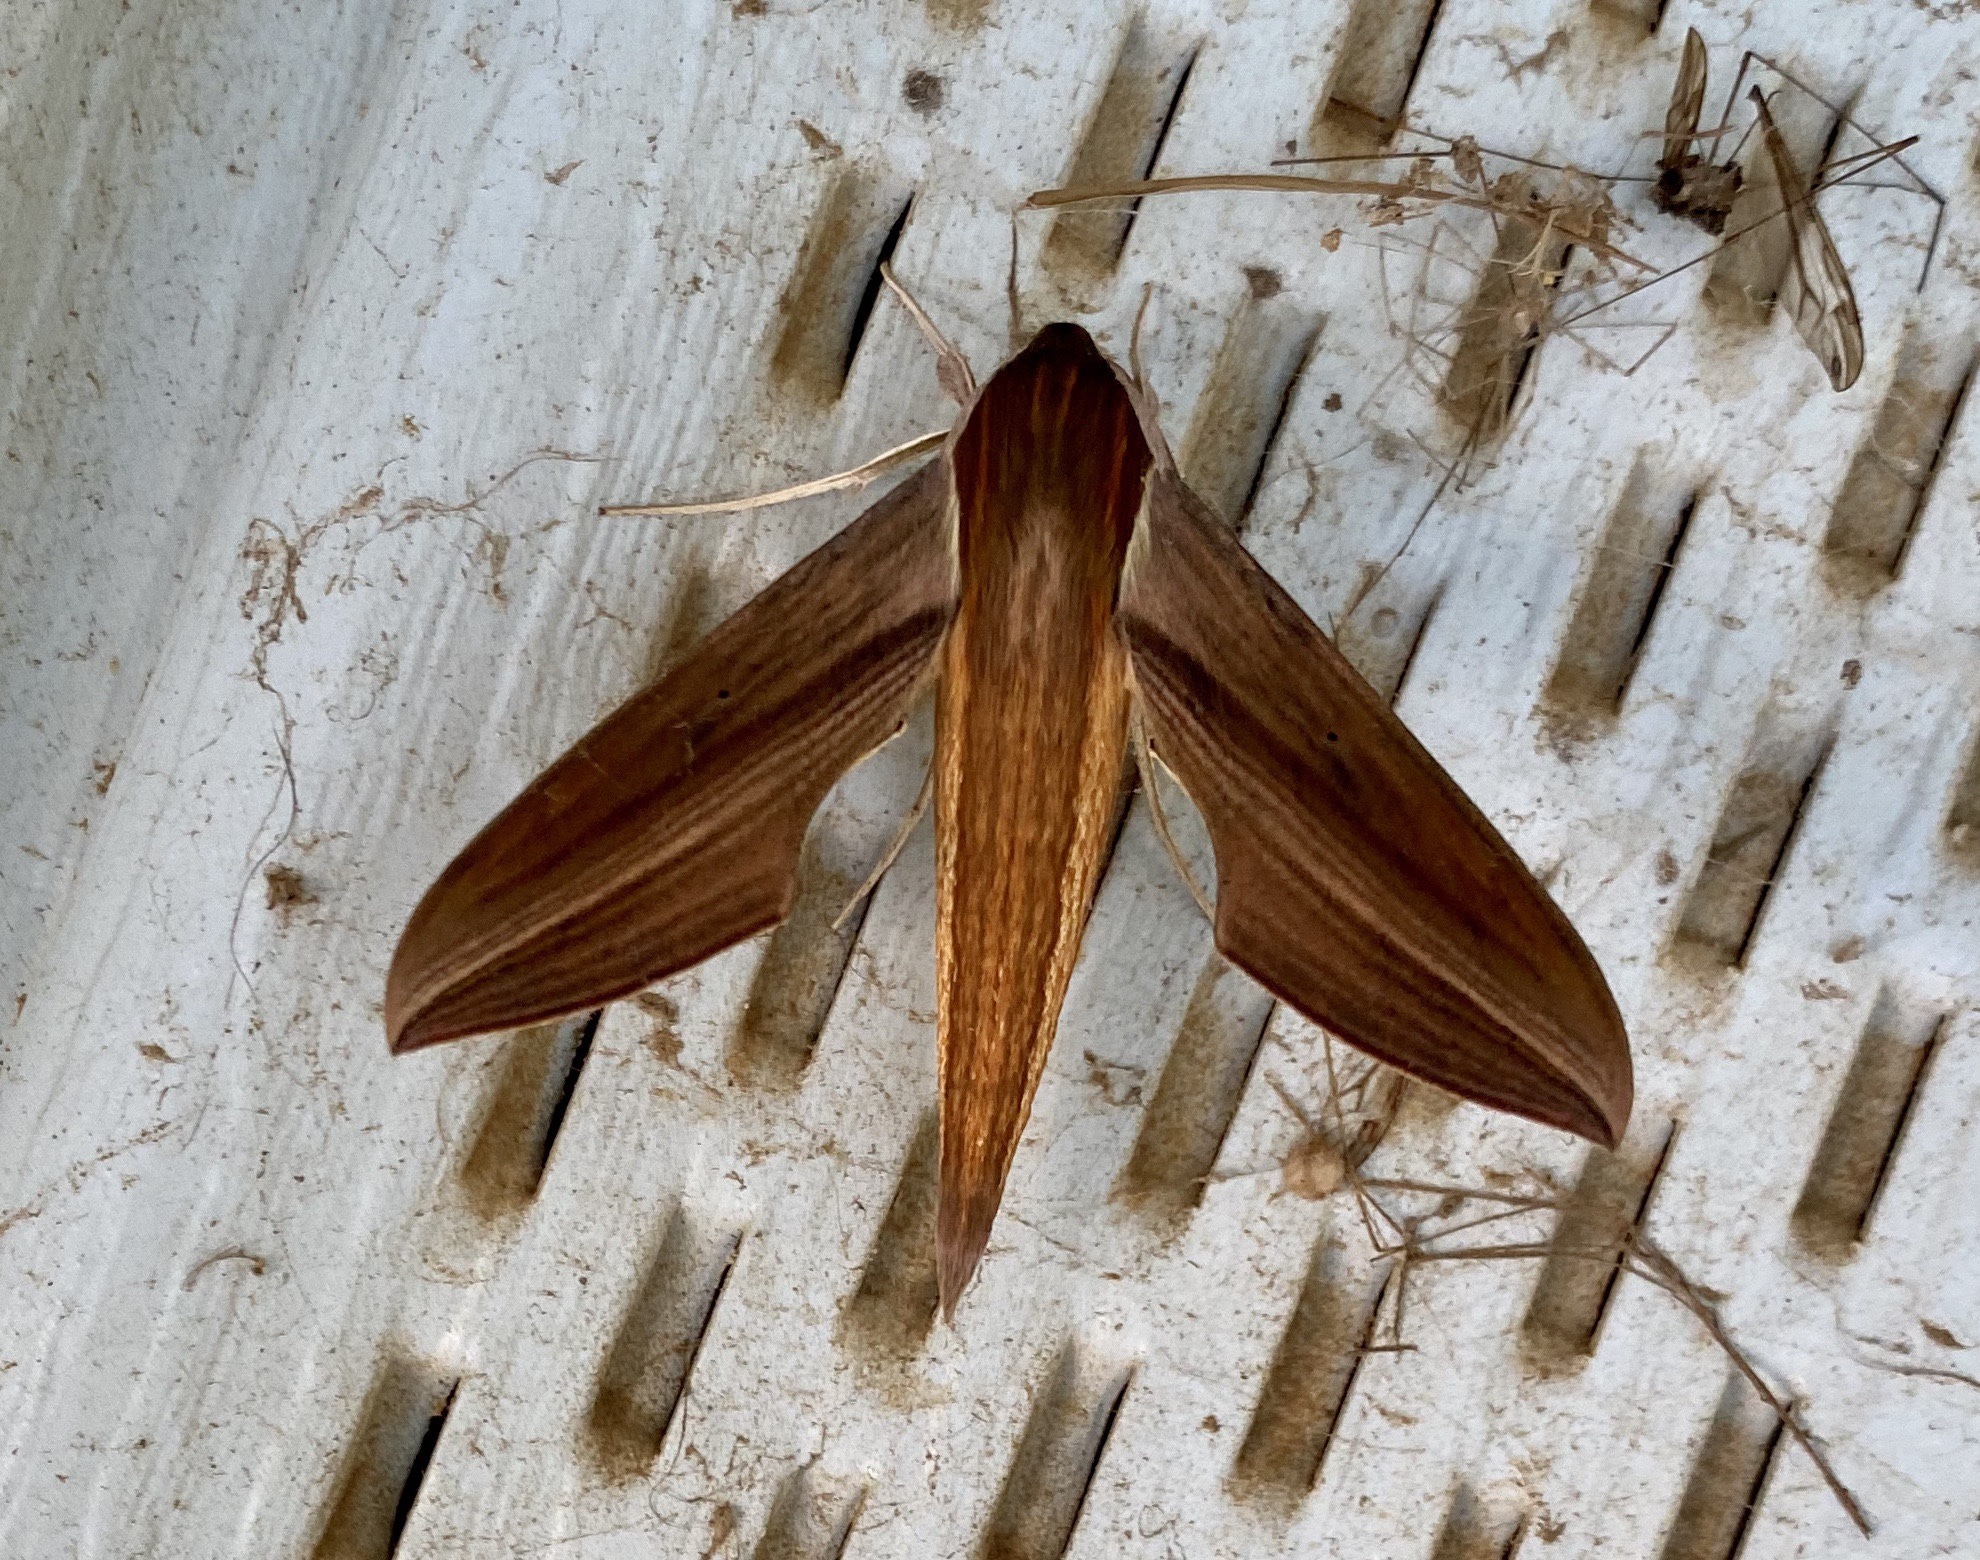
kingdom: Animalia
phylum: Arthropoda
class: Insecta
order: Lepidoptera
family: Sphingidae
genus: Xylophanes
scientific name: Xylophanes tersa
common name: Tersa sphinx
